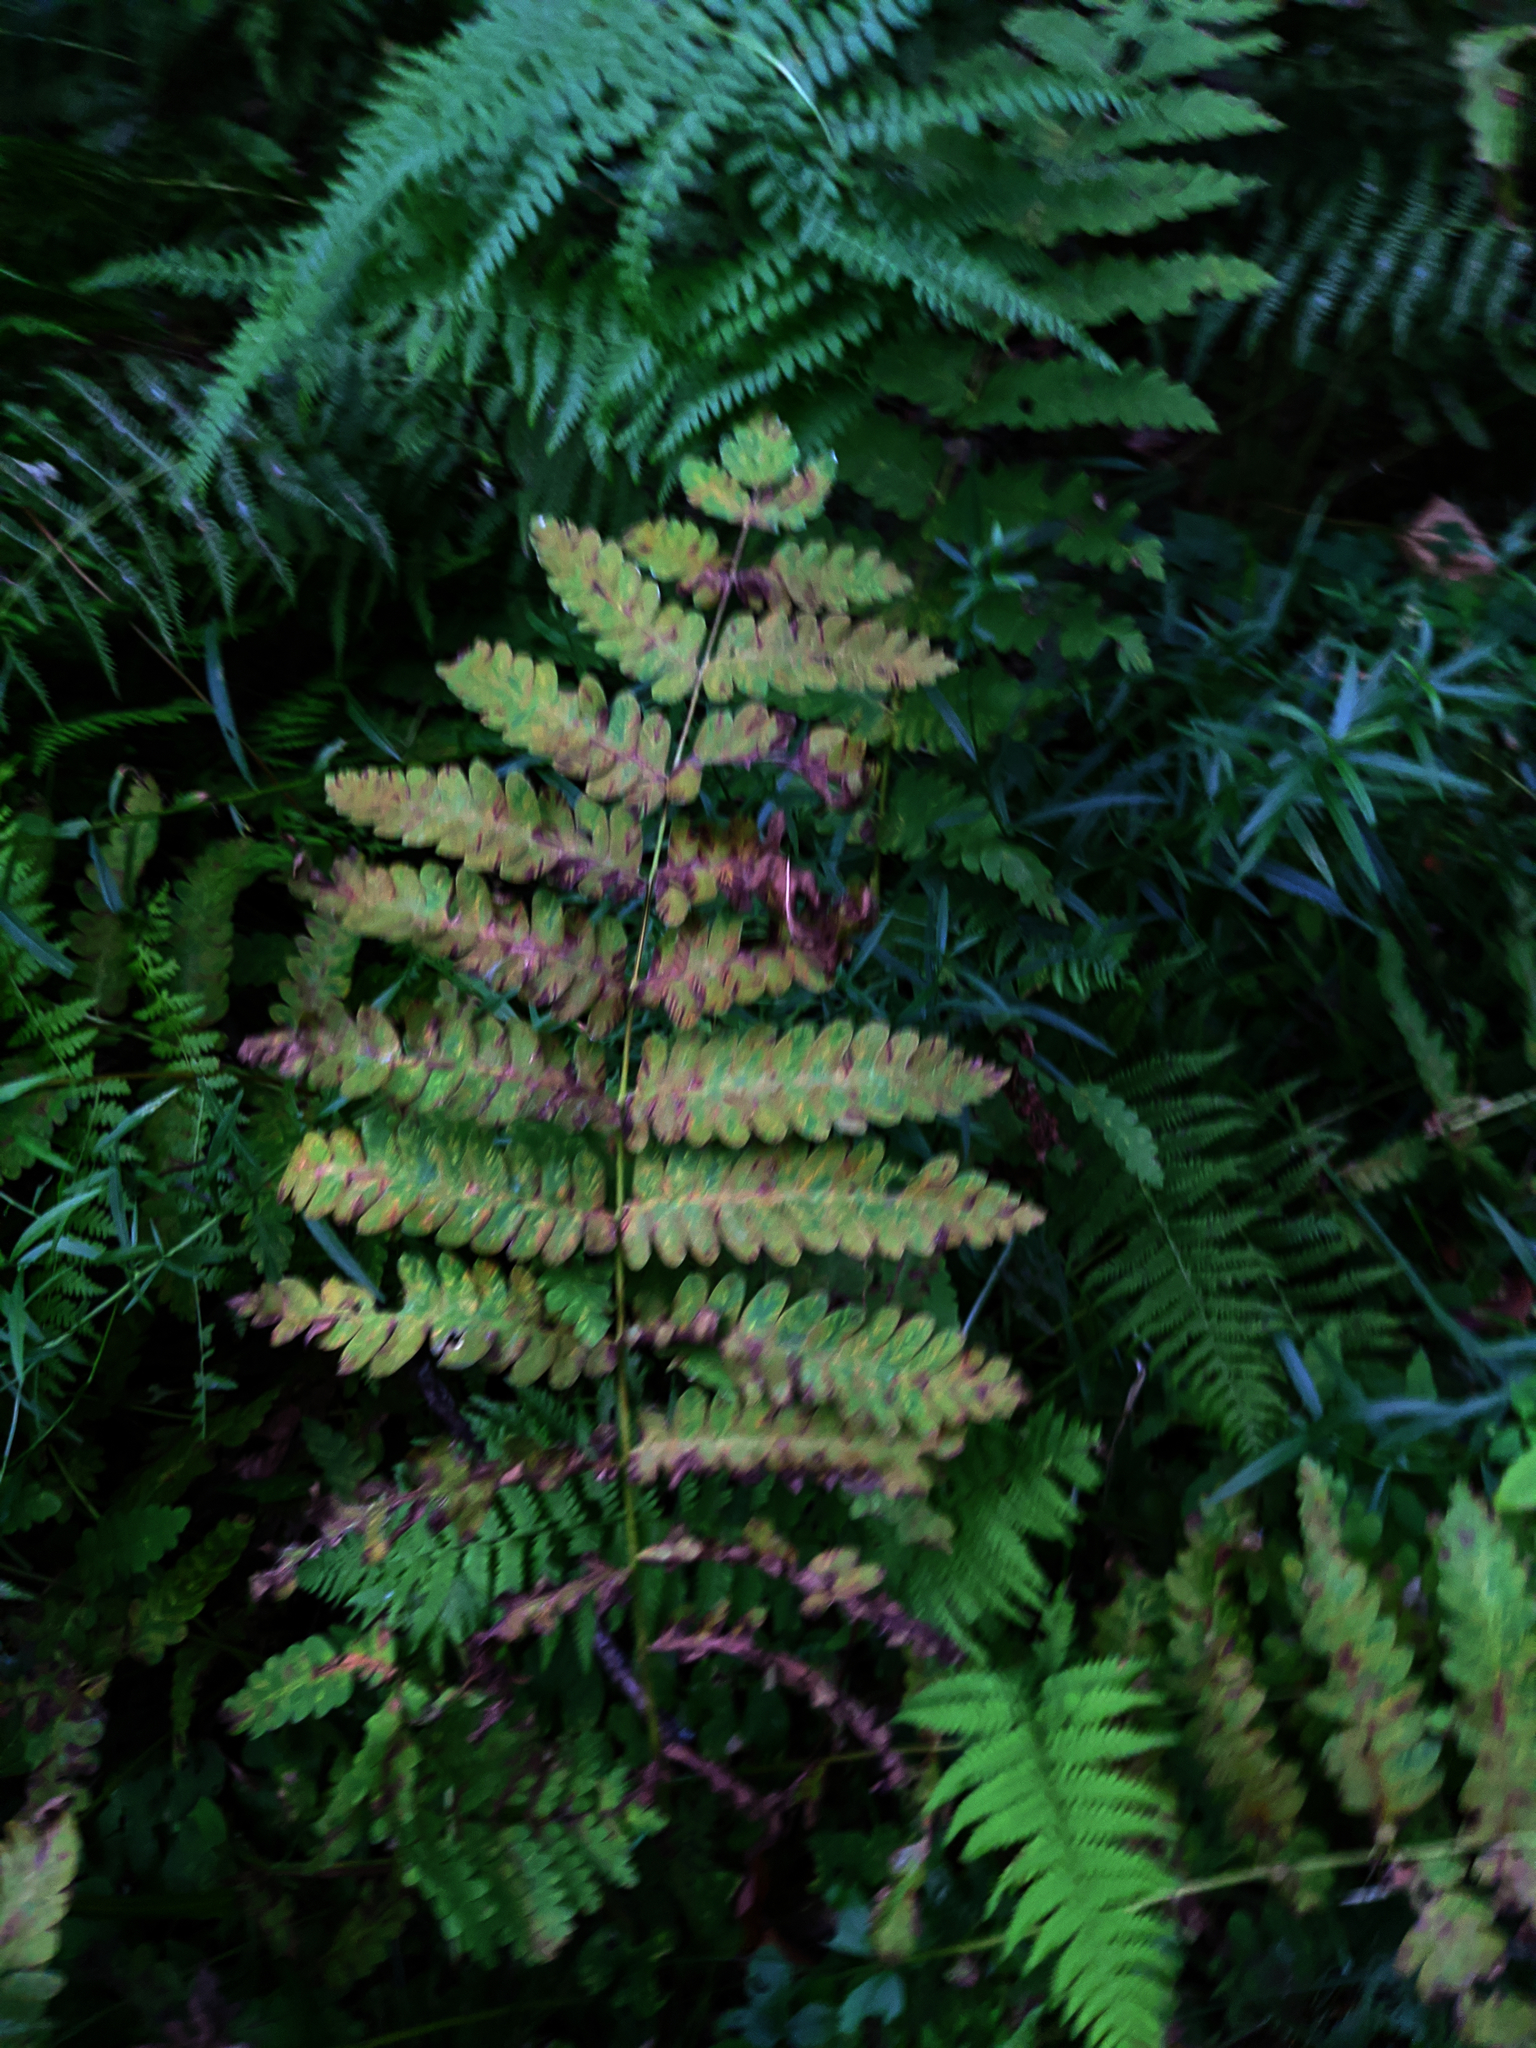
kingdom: Plantae
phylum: Tracheophyta
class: Polypodiopsida
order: Osmundales
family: Osmundaceae
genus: Claytosmunda
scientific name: Claytosmunda claytoniana
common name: Clayton's fern
